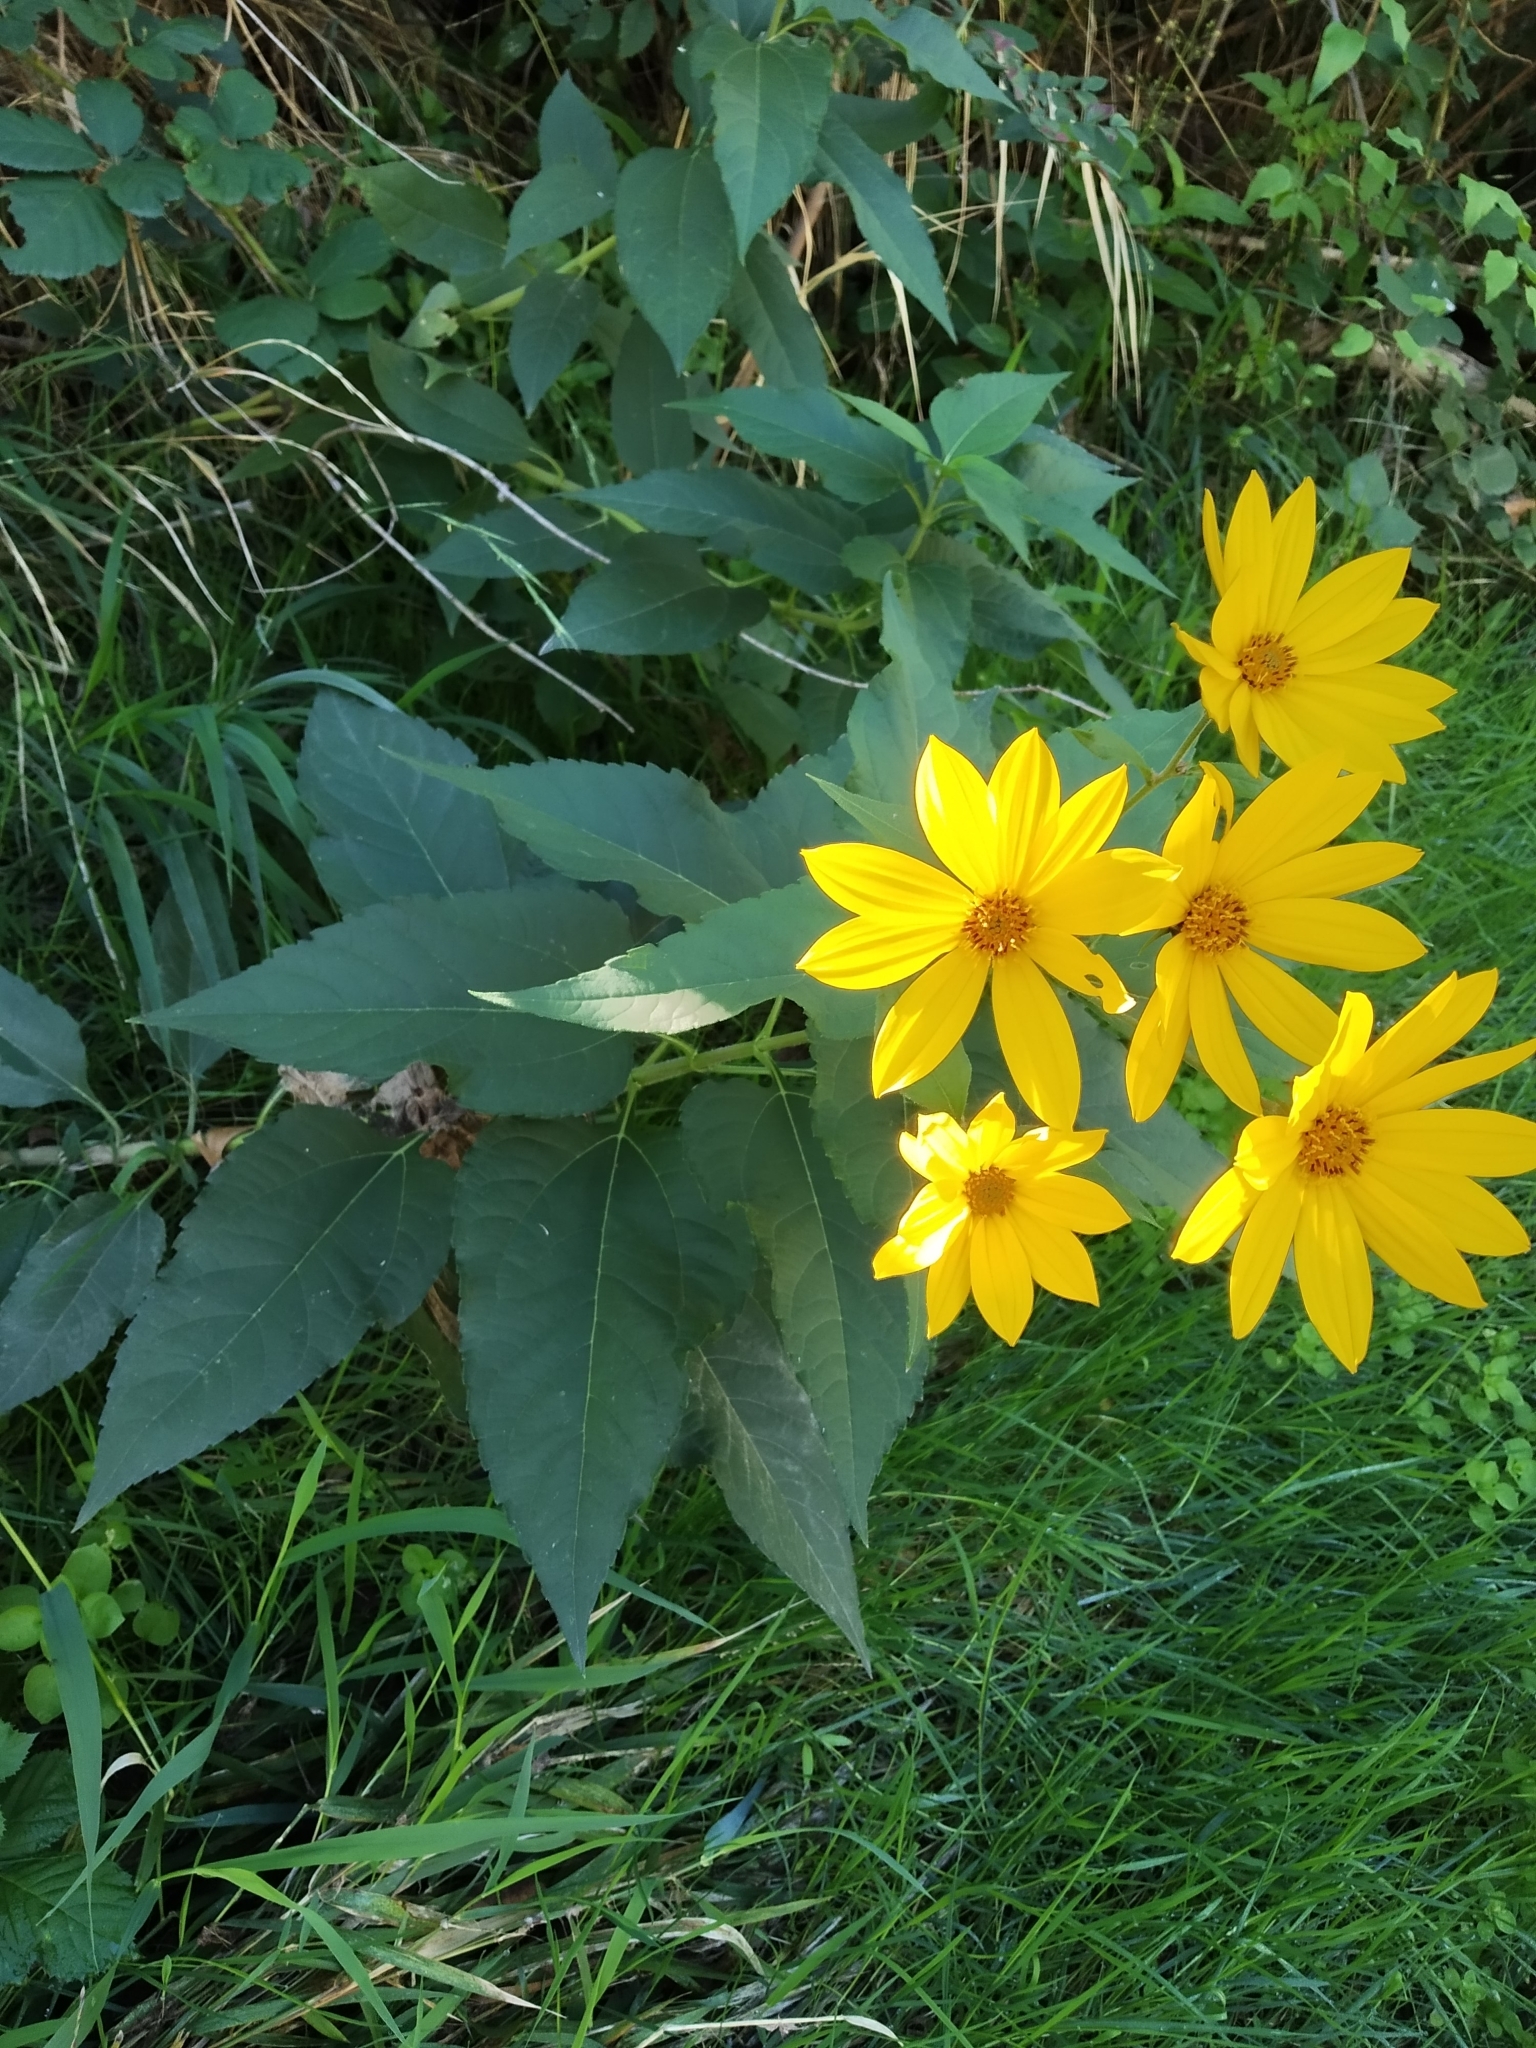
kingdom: Plantae
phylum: Tracheophyta
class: Magnoliopsida
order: Asterales
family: Asteraceae
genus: Helianthus
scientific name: Helianthus tuberosus
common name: Jerusalem artichoke
